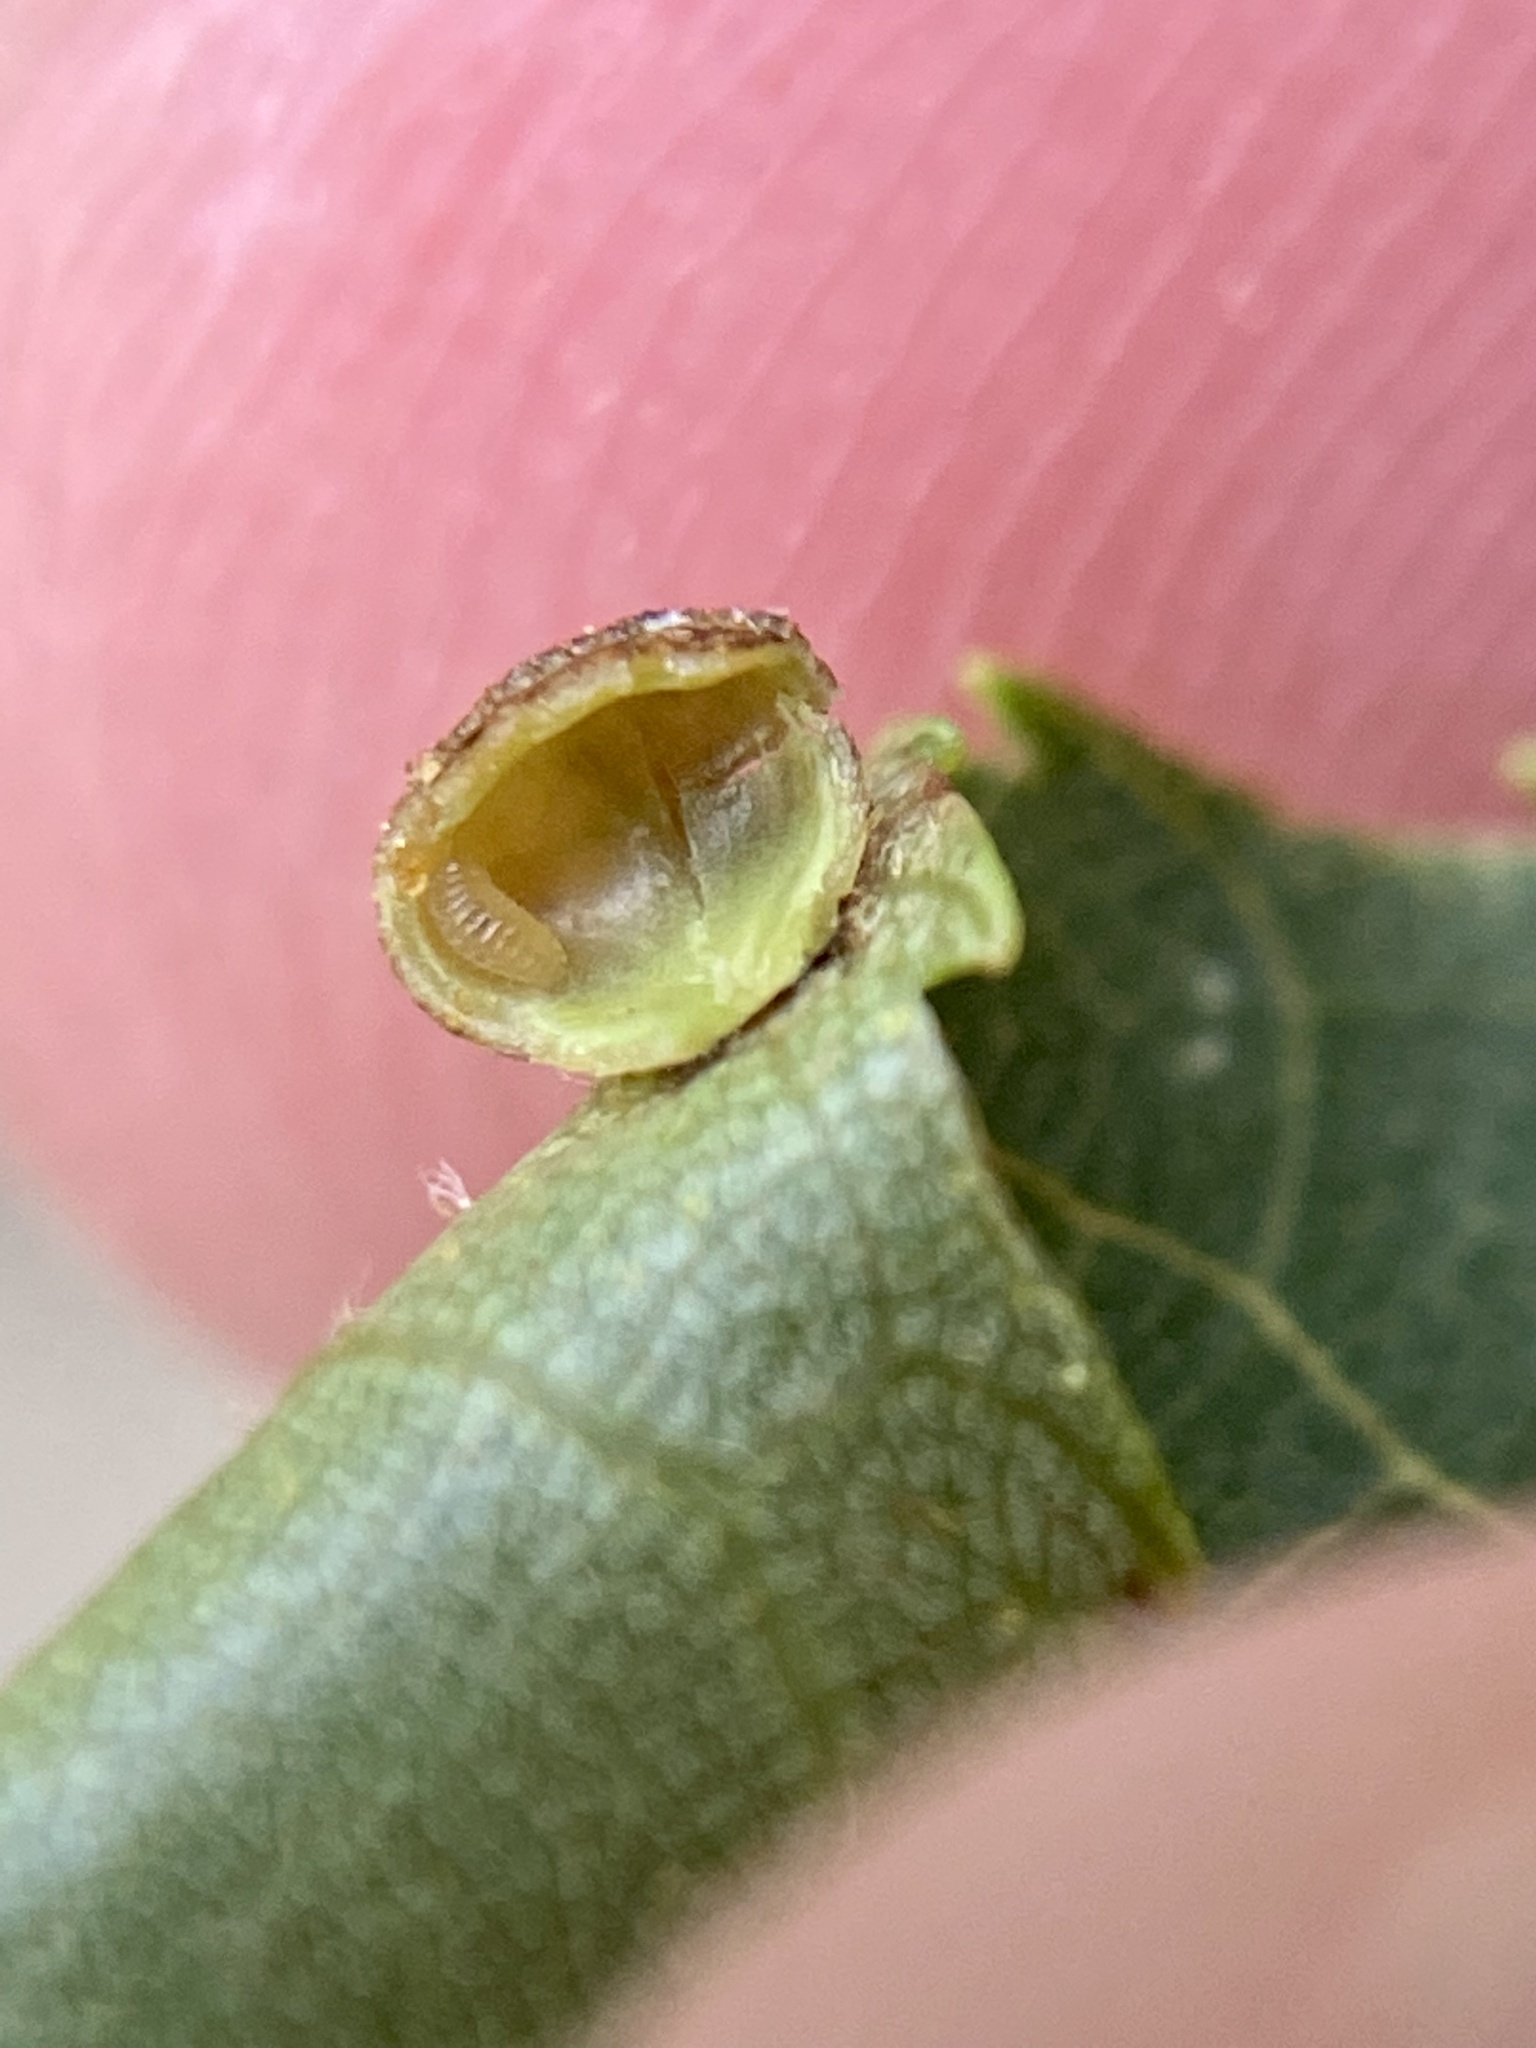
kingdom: Animalia
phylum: Arthropoda
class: Insecta
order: Diptera
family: Cecidomyiidae
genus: Caryomyia
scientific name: Caryomyia caryae
